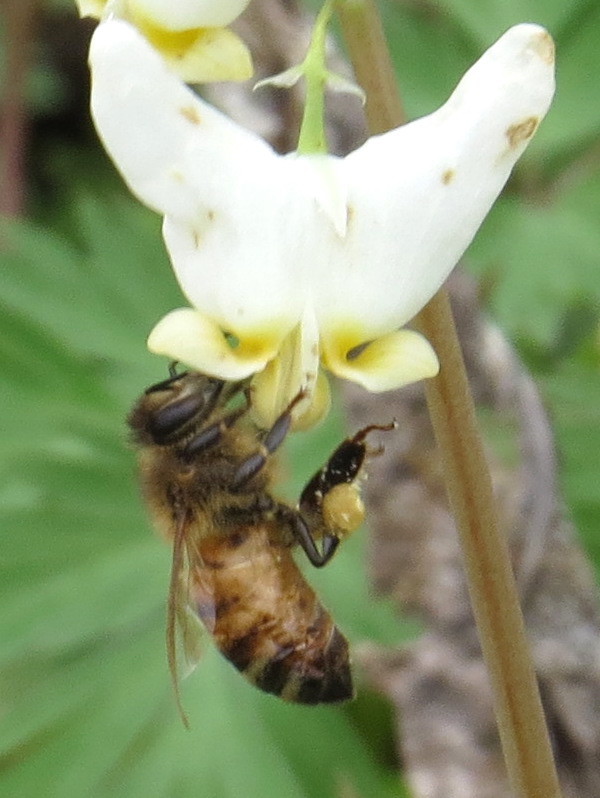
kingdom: Animalia
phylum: Arthropoda
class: Insecta
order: Hymenoptera
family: Apidae
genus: Apis
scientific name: Apis mellifera
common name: Honey bee
